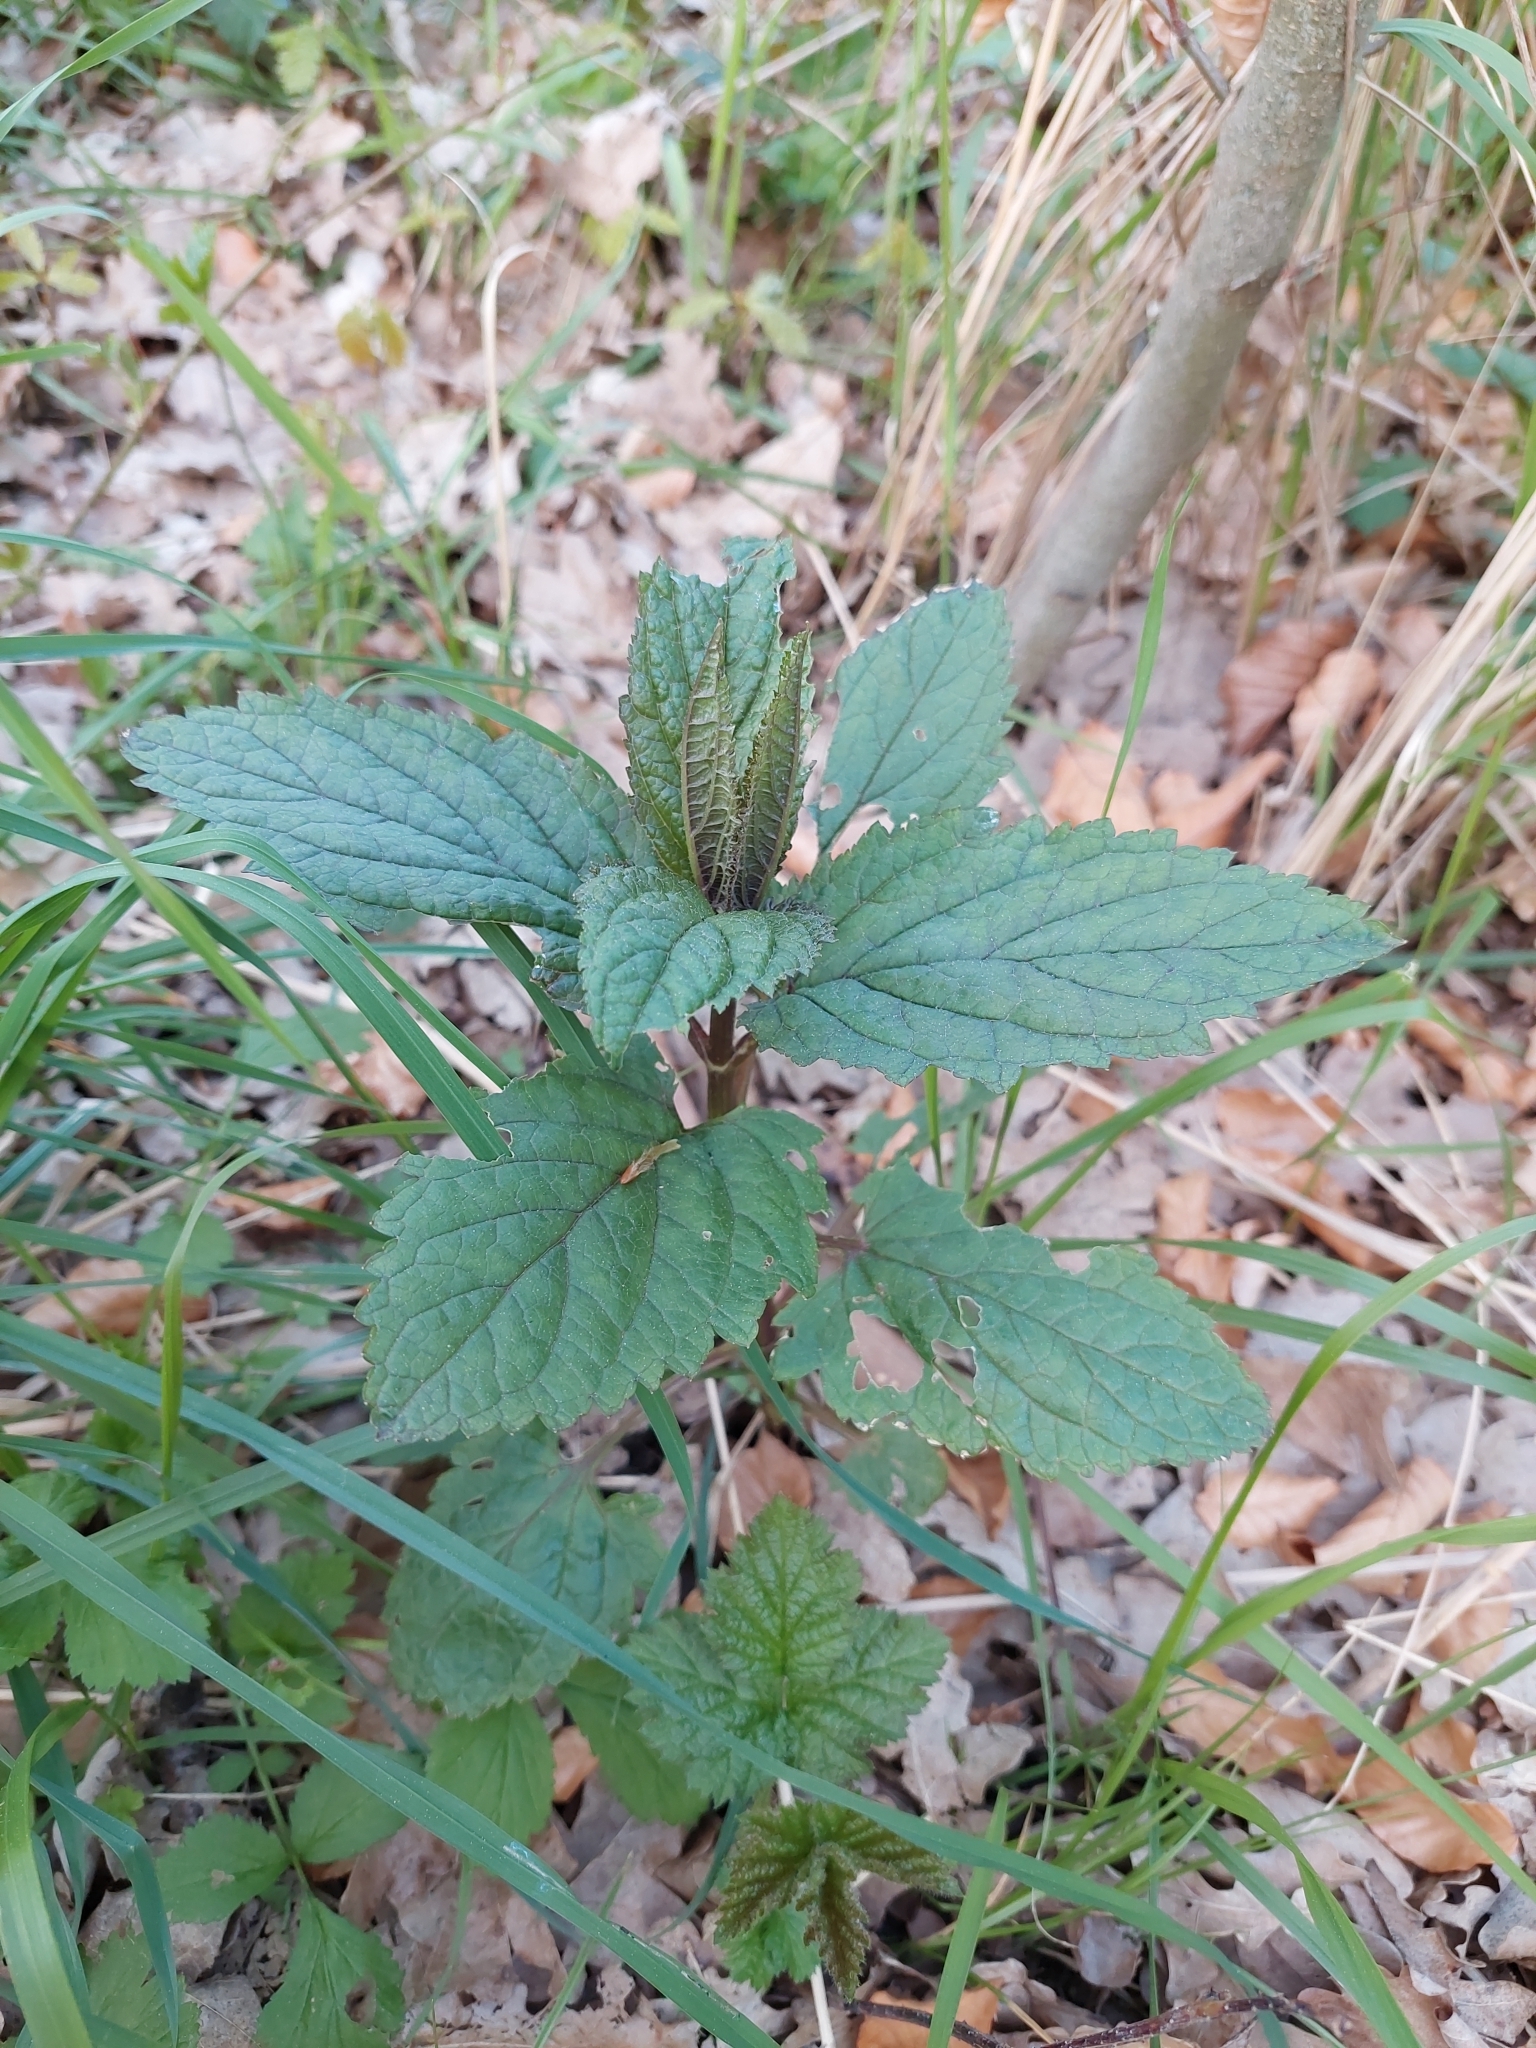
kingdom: Plantae
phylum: Tracheophyta
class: Magnoliopsida
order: Lamiales
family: Scrophulariaceae
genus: Scrophularia
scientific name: Scrophularia nodosa
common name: Common figwort
